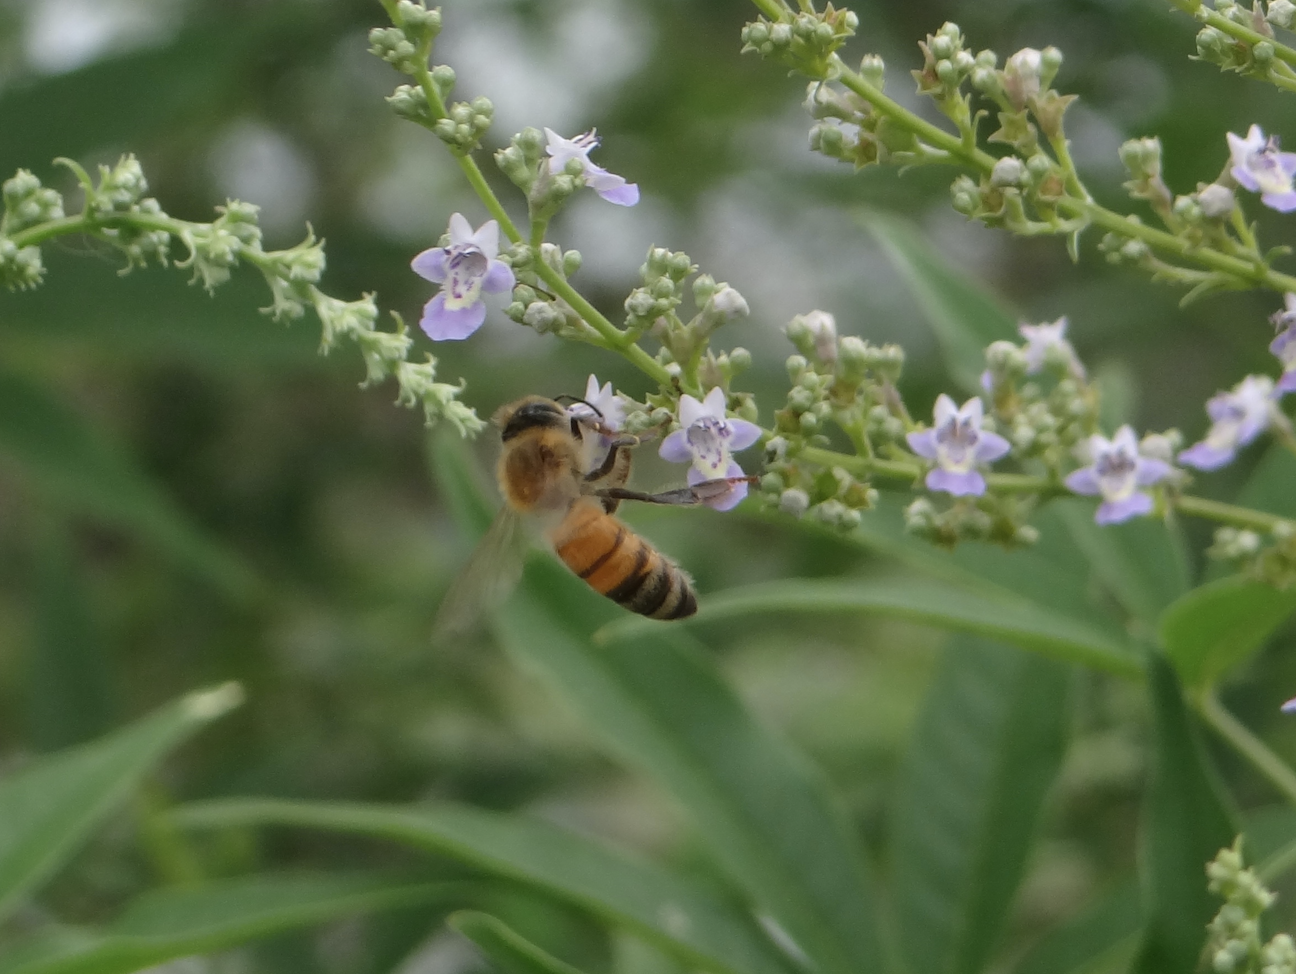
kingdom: Animalia
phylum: Arthropoda
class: Insecta
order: Hymenoptera
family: Apidae
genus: Apis
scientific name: Apis mellifera
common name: Honey bee
